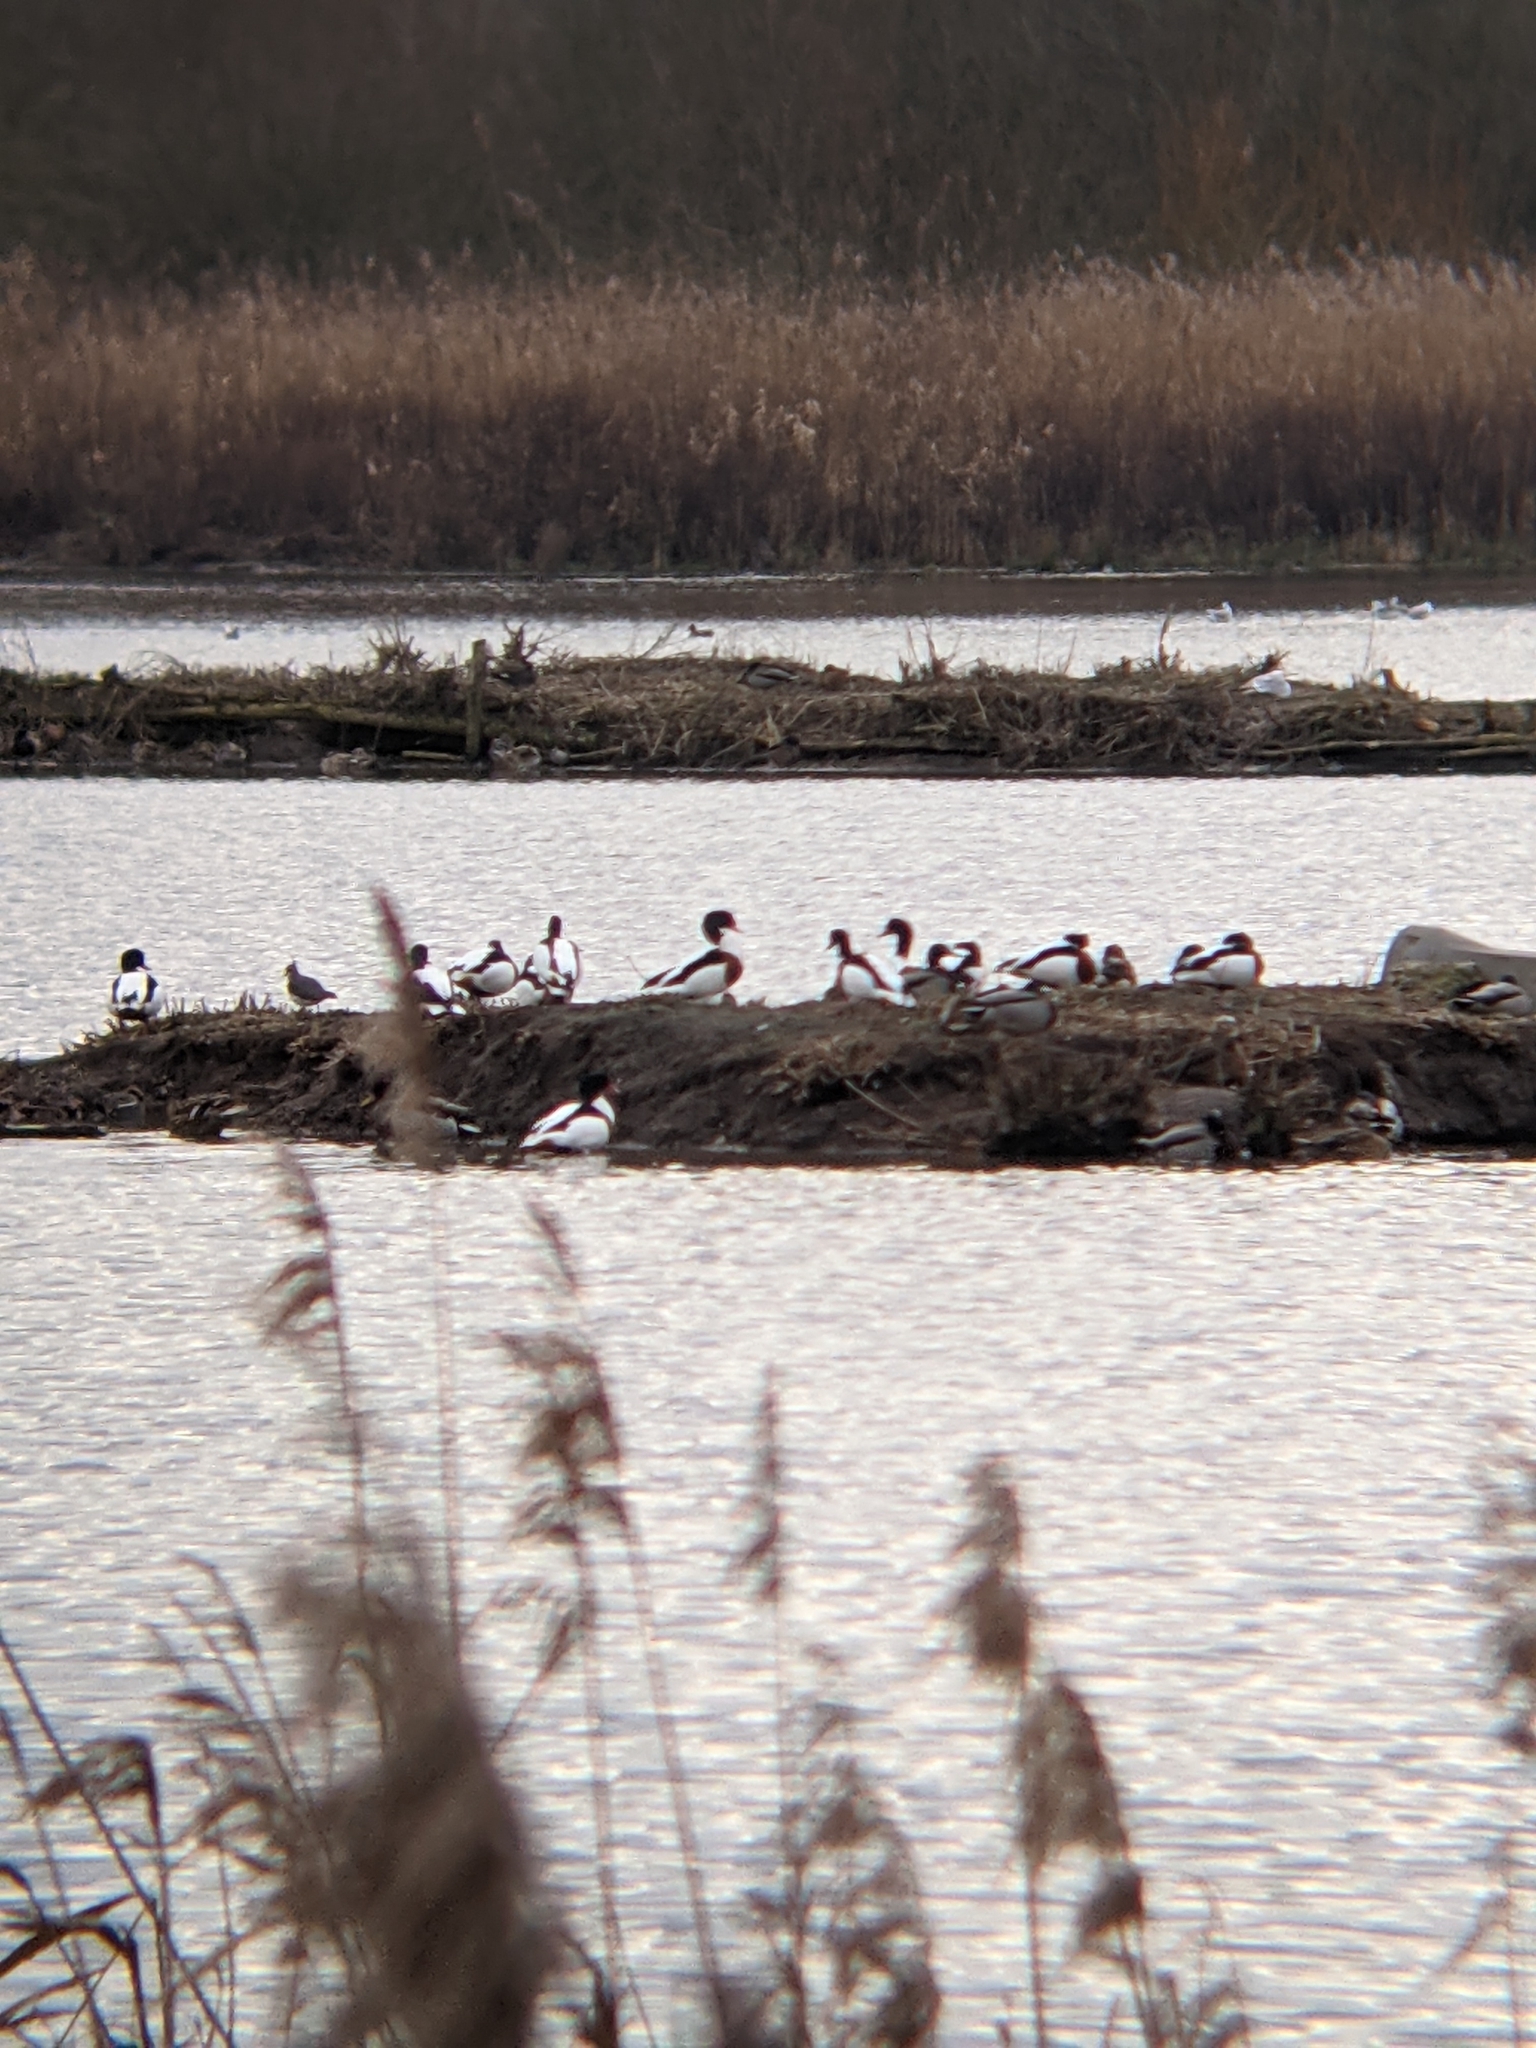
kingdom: Animalia
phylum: Chordata
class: Aves
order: Anseriformes
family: Anatidae
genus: Tadorna
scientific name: Tadorna tadorna
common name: Common shelduck
